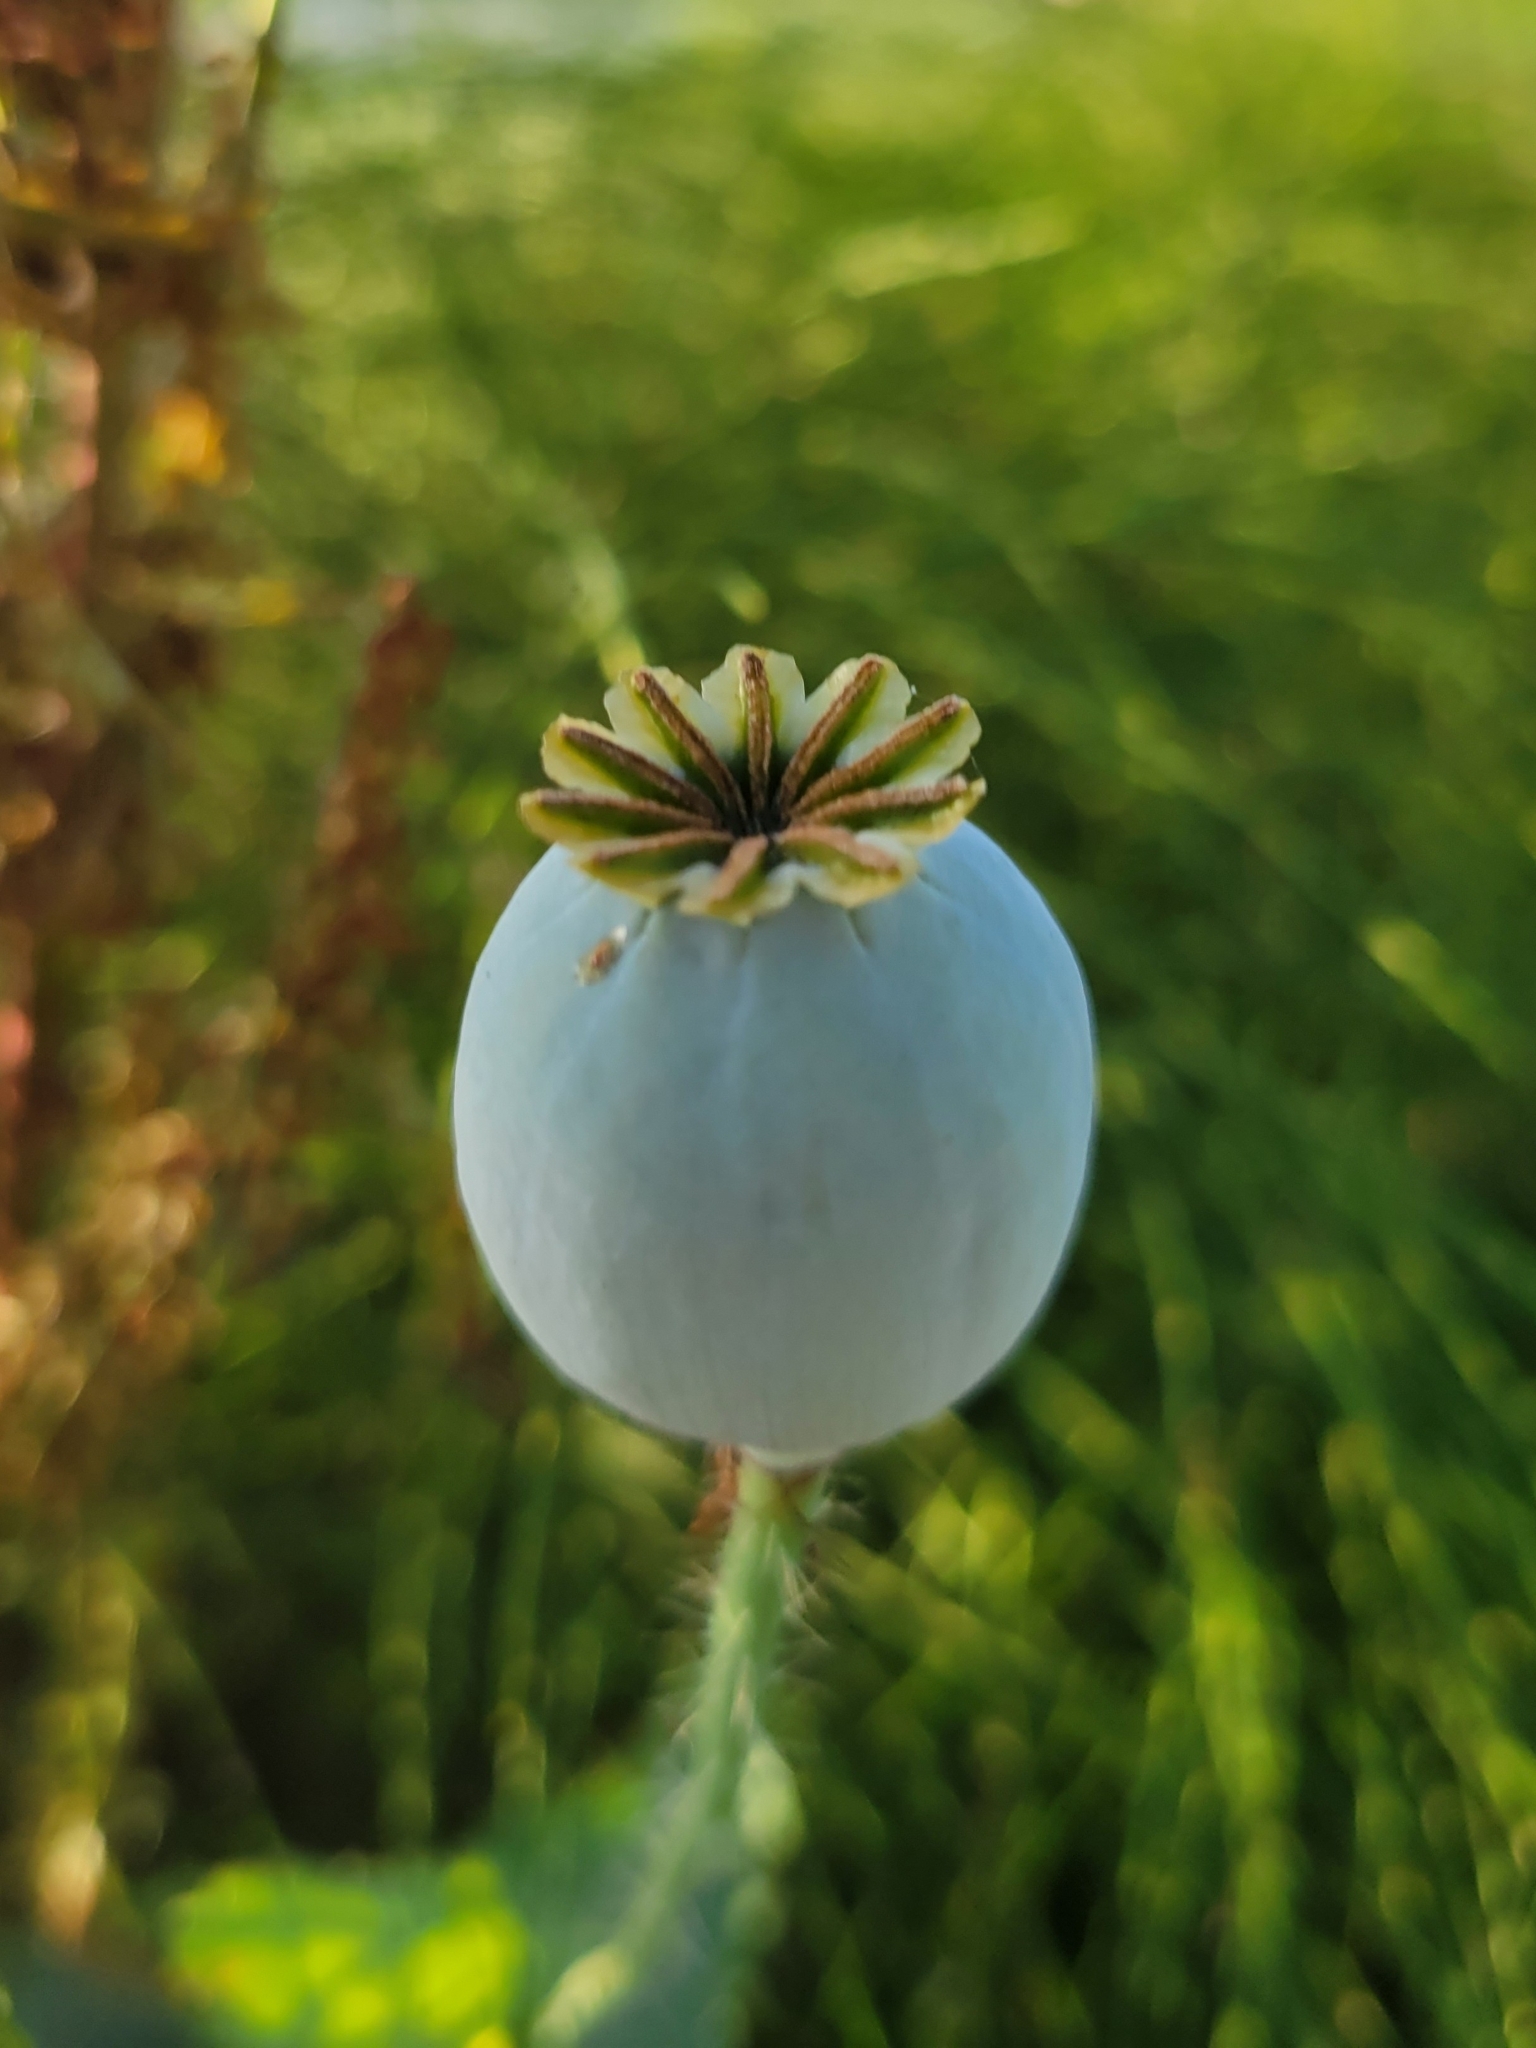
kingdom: Plantae
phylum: Tracheophyta
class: Magnoliopsida
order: Ranunculales
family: Papaveraceae
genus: Papaver
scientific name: Papaver somniferum
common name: Opium poppy
